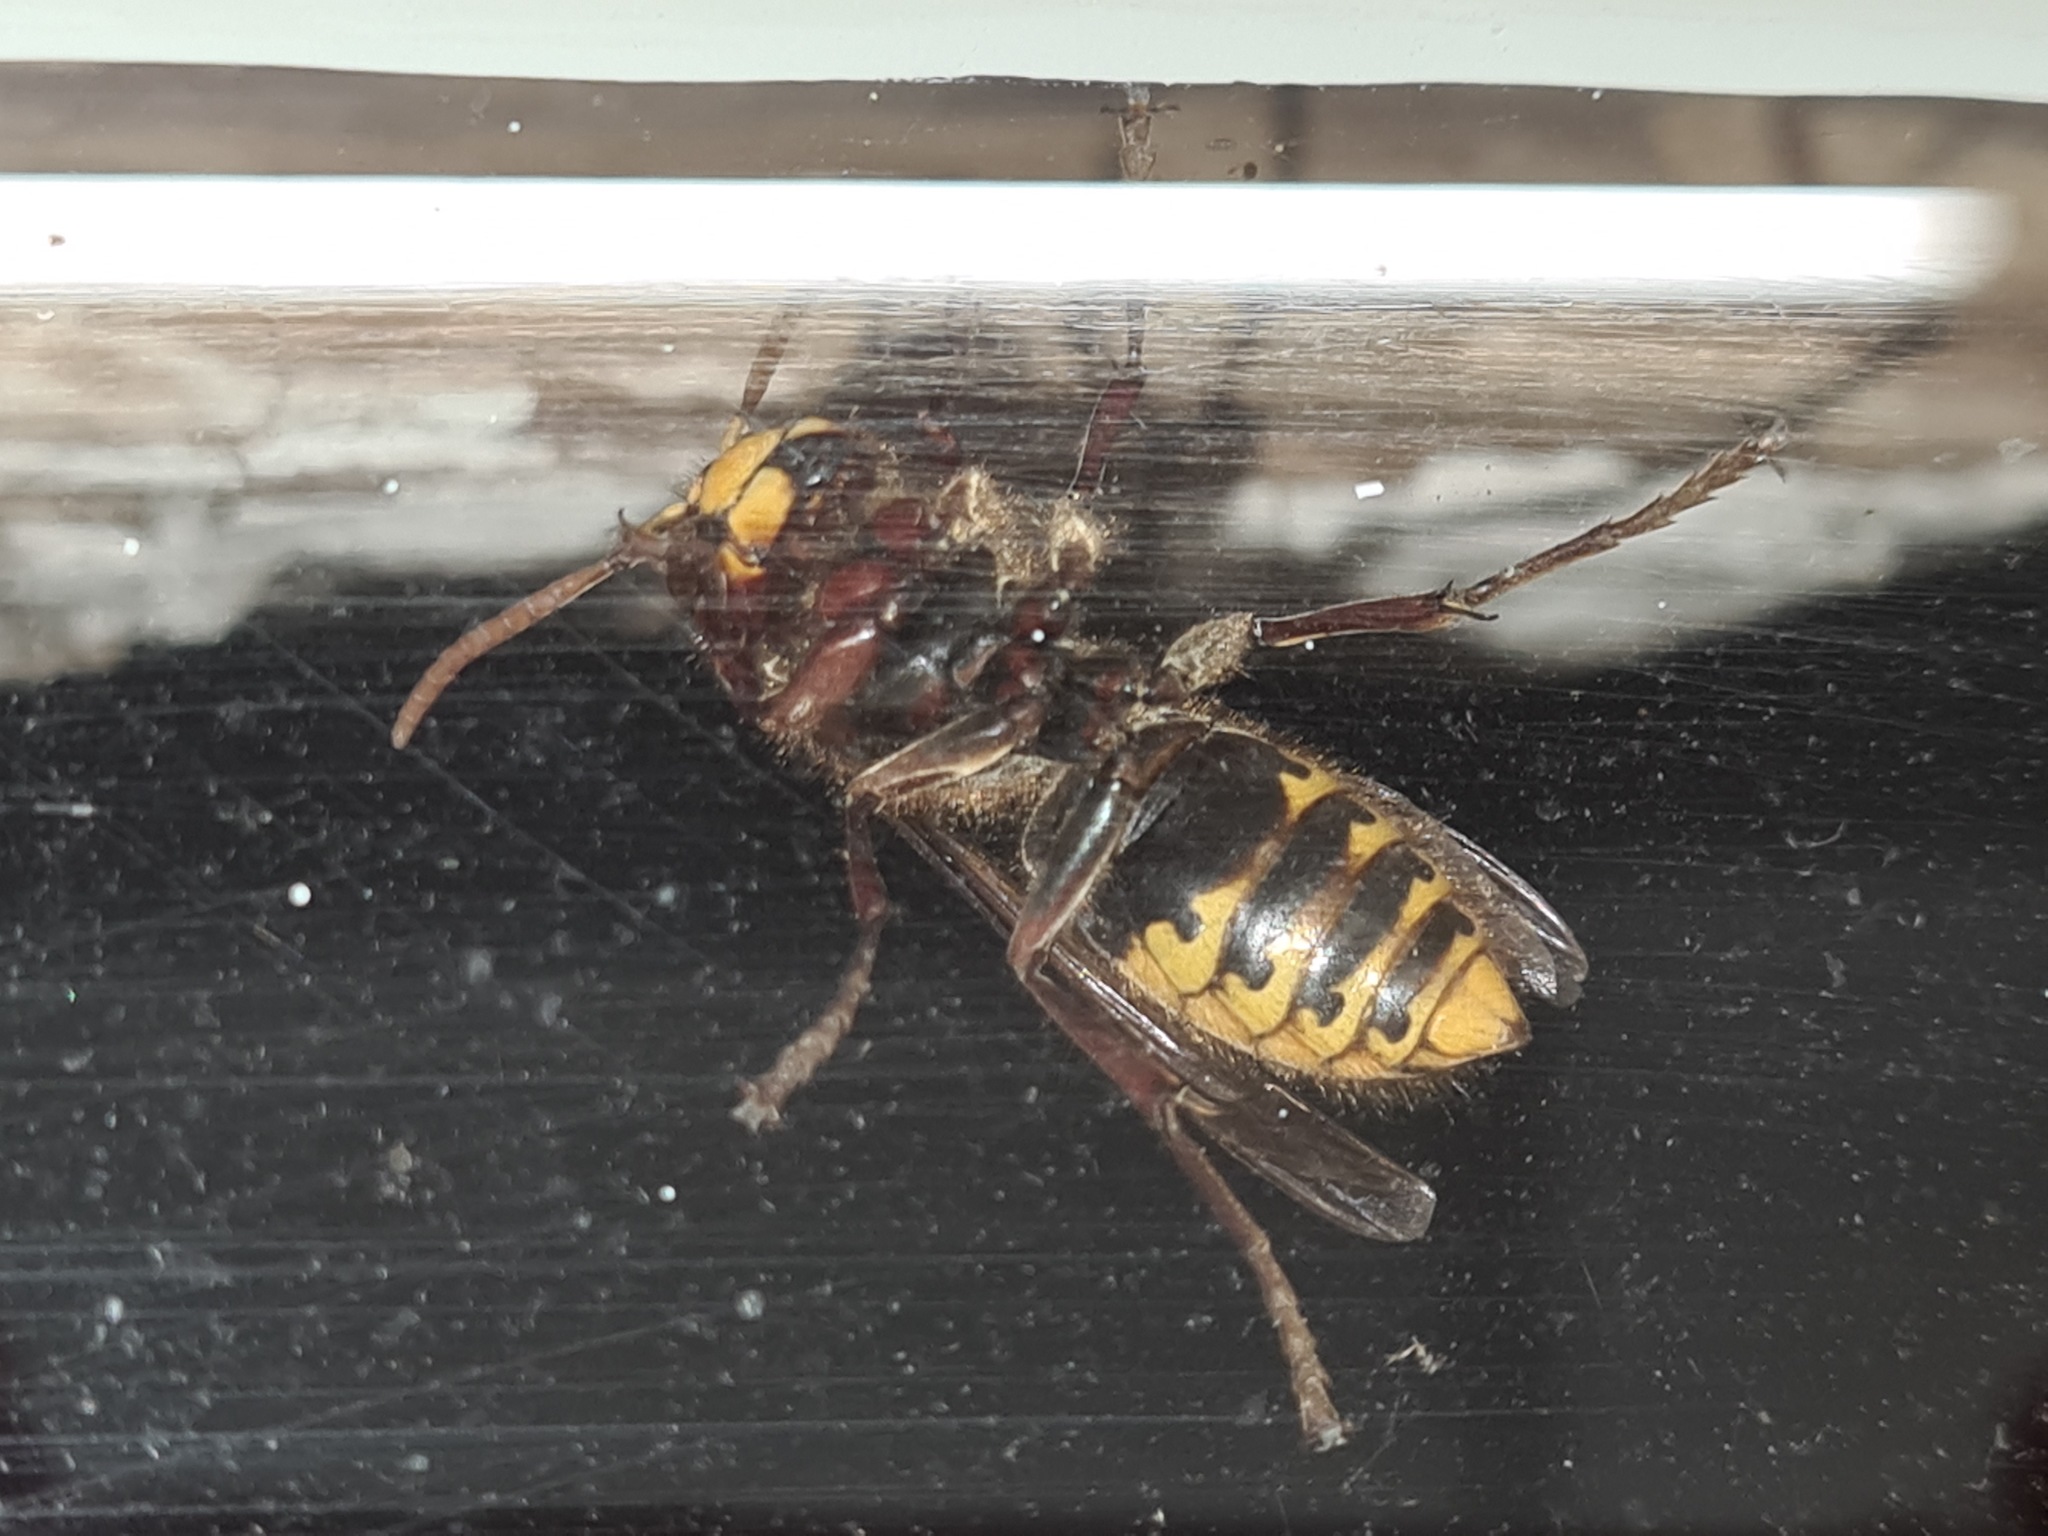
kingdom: Animalia
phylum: Arthropoda
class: Insecta
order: Hymenoptera
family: Vespidae
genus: Vespa
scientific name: Vespa crabro
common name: Hornet
